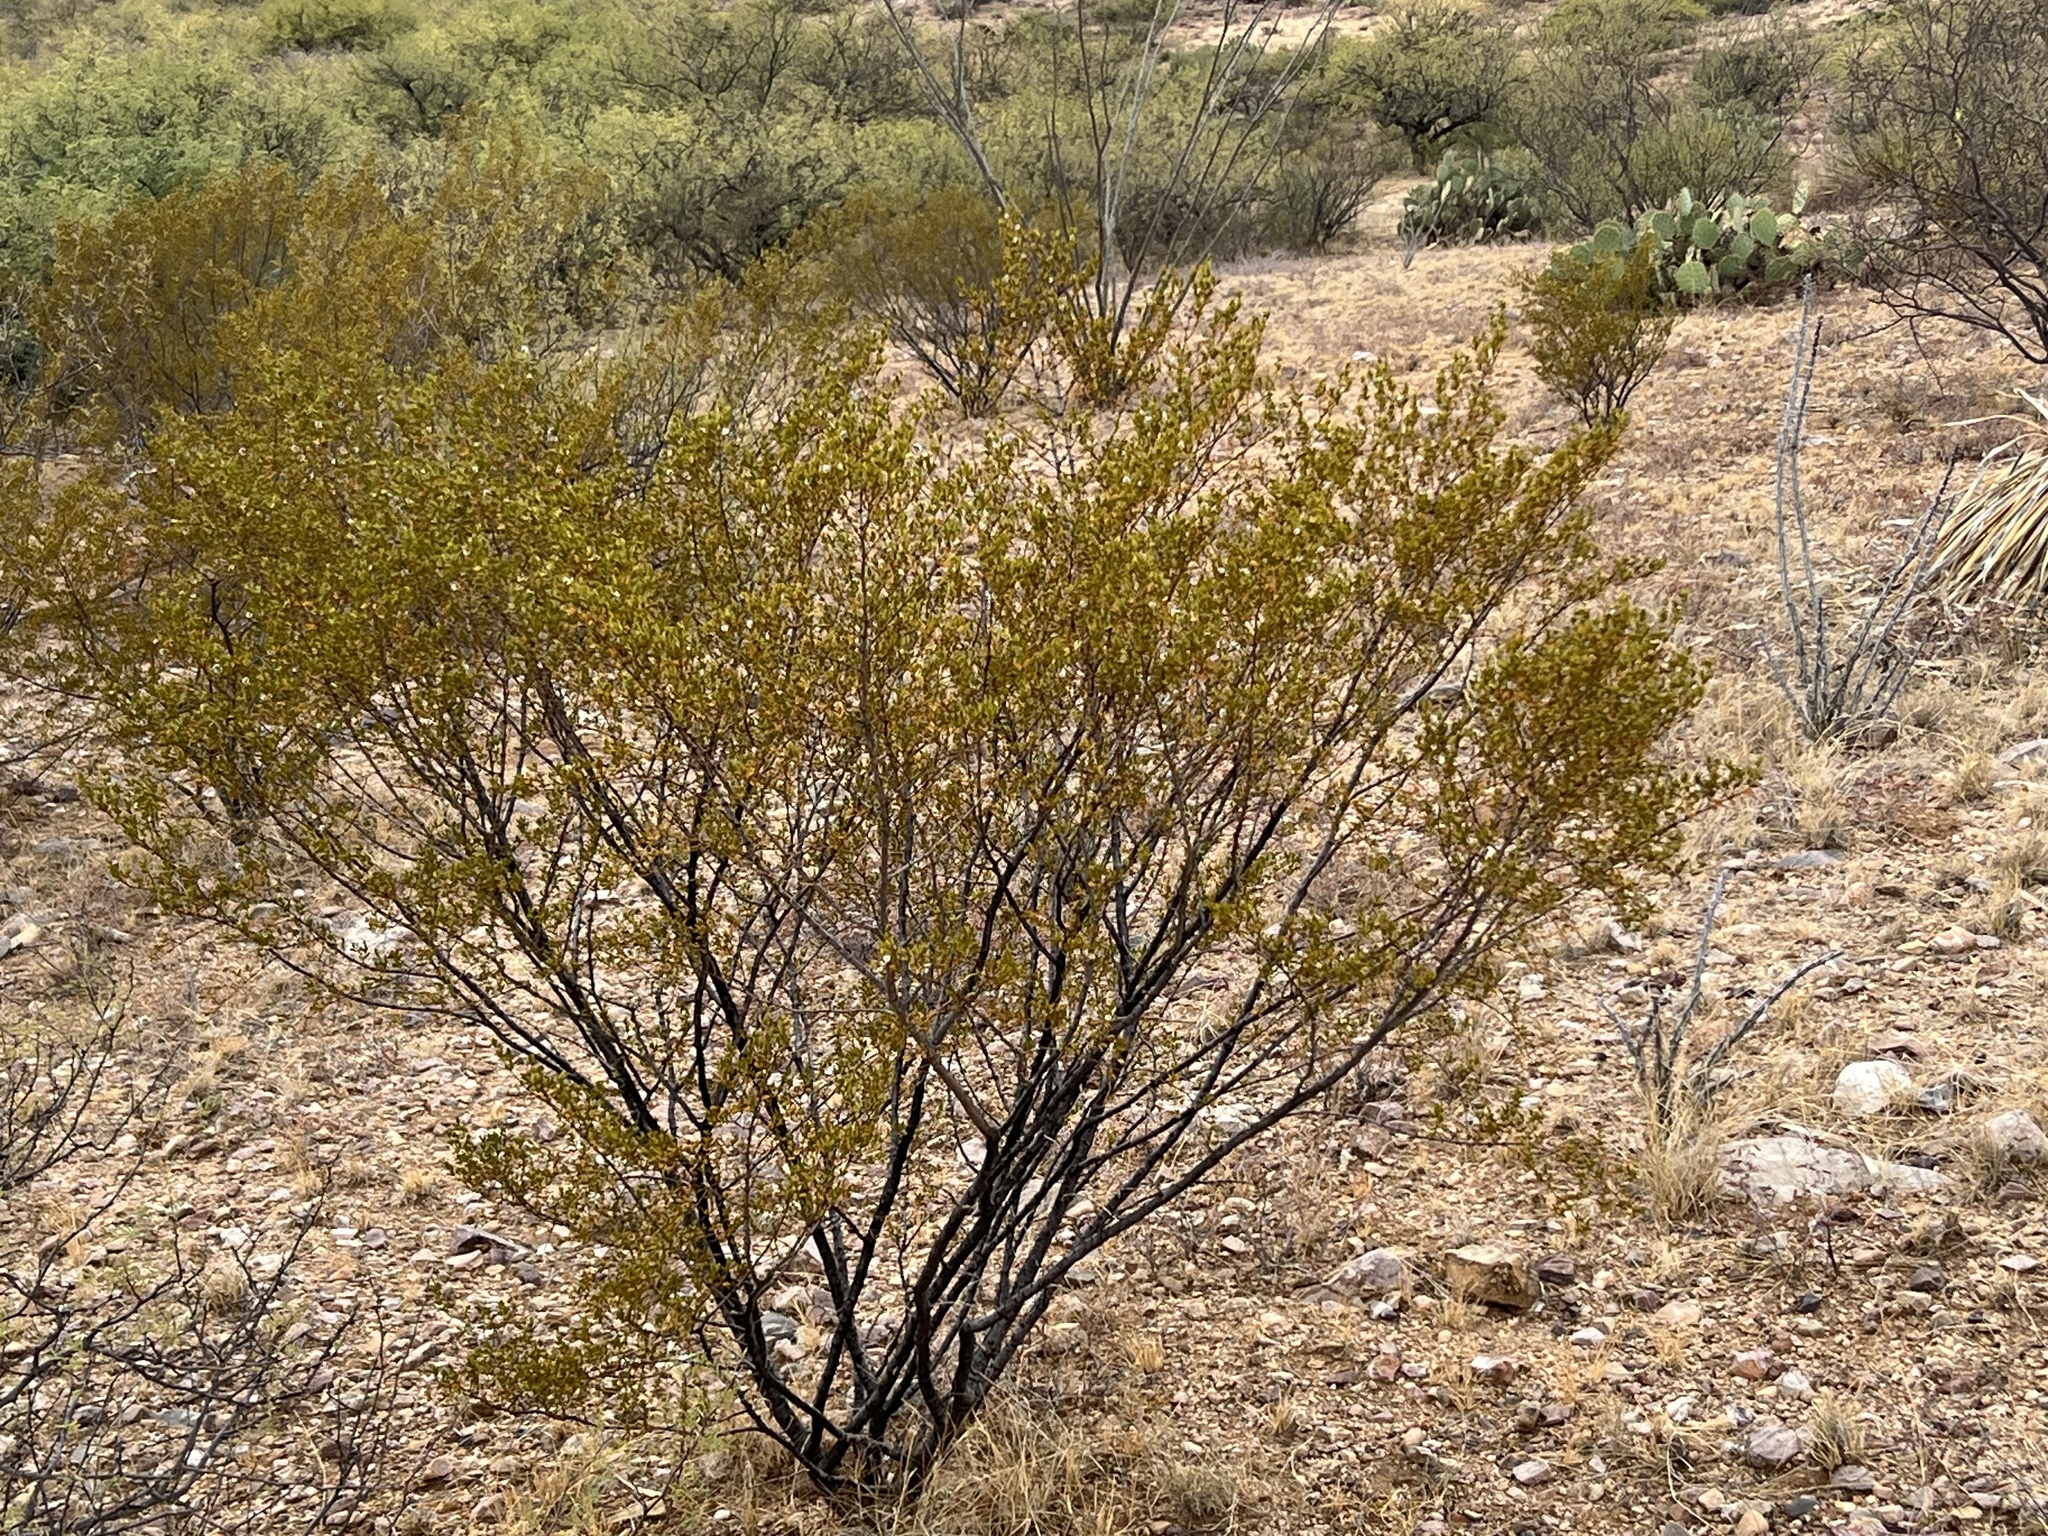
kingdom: Plantae
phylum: Tracheophyta
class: Magnoliopsida
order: Zygophyllales
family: Zygophyllaceae
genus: Larrea
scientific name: Larrea tridentata
